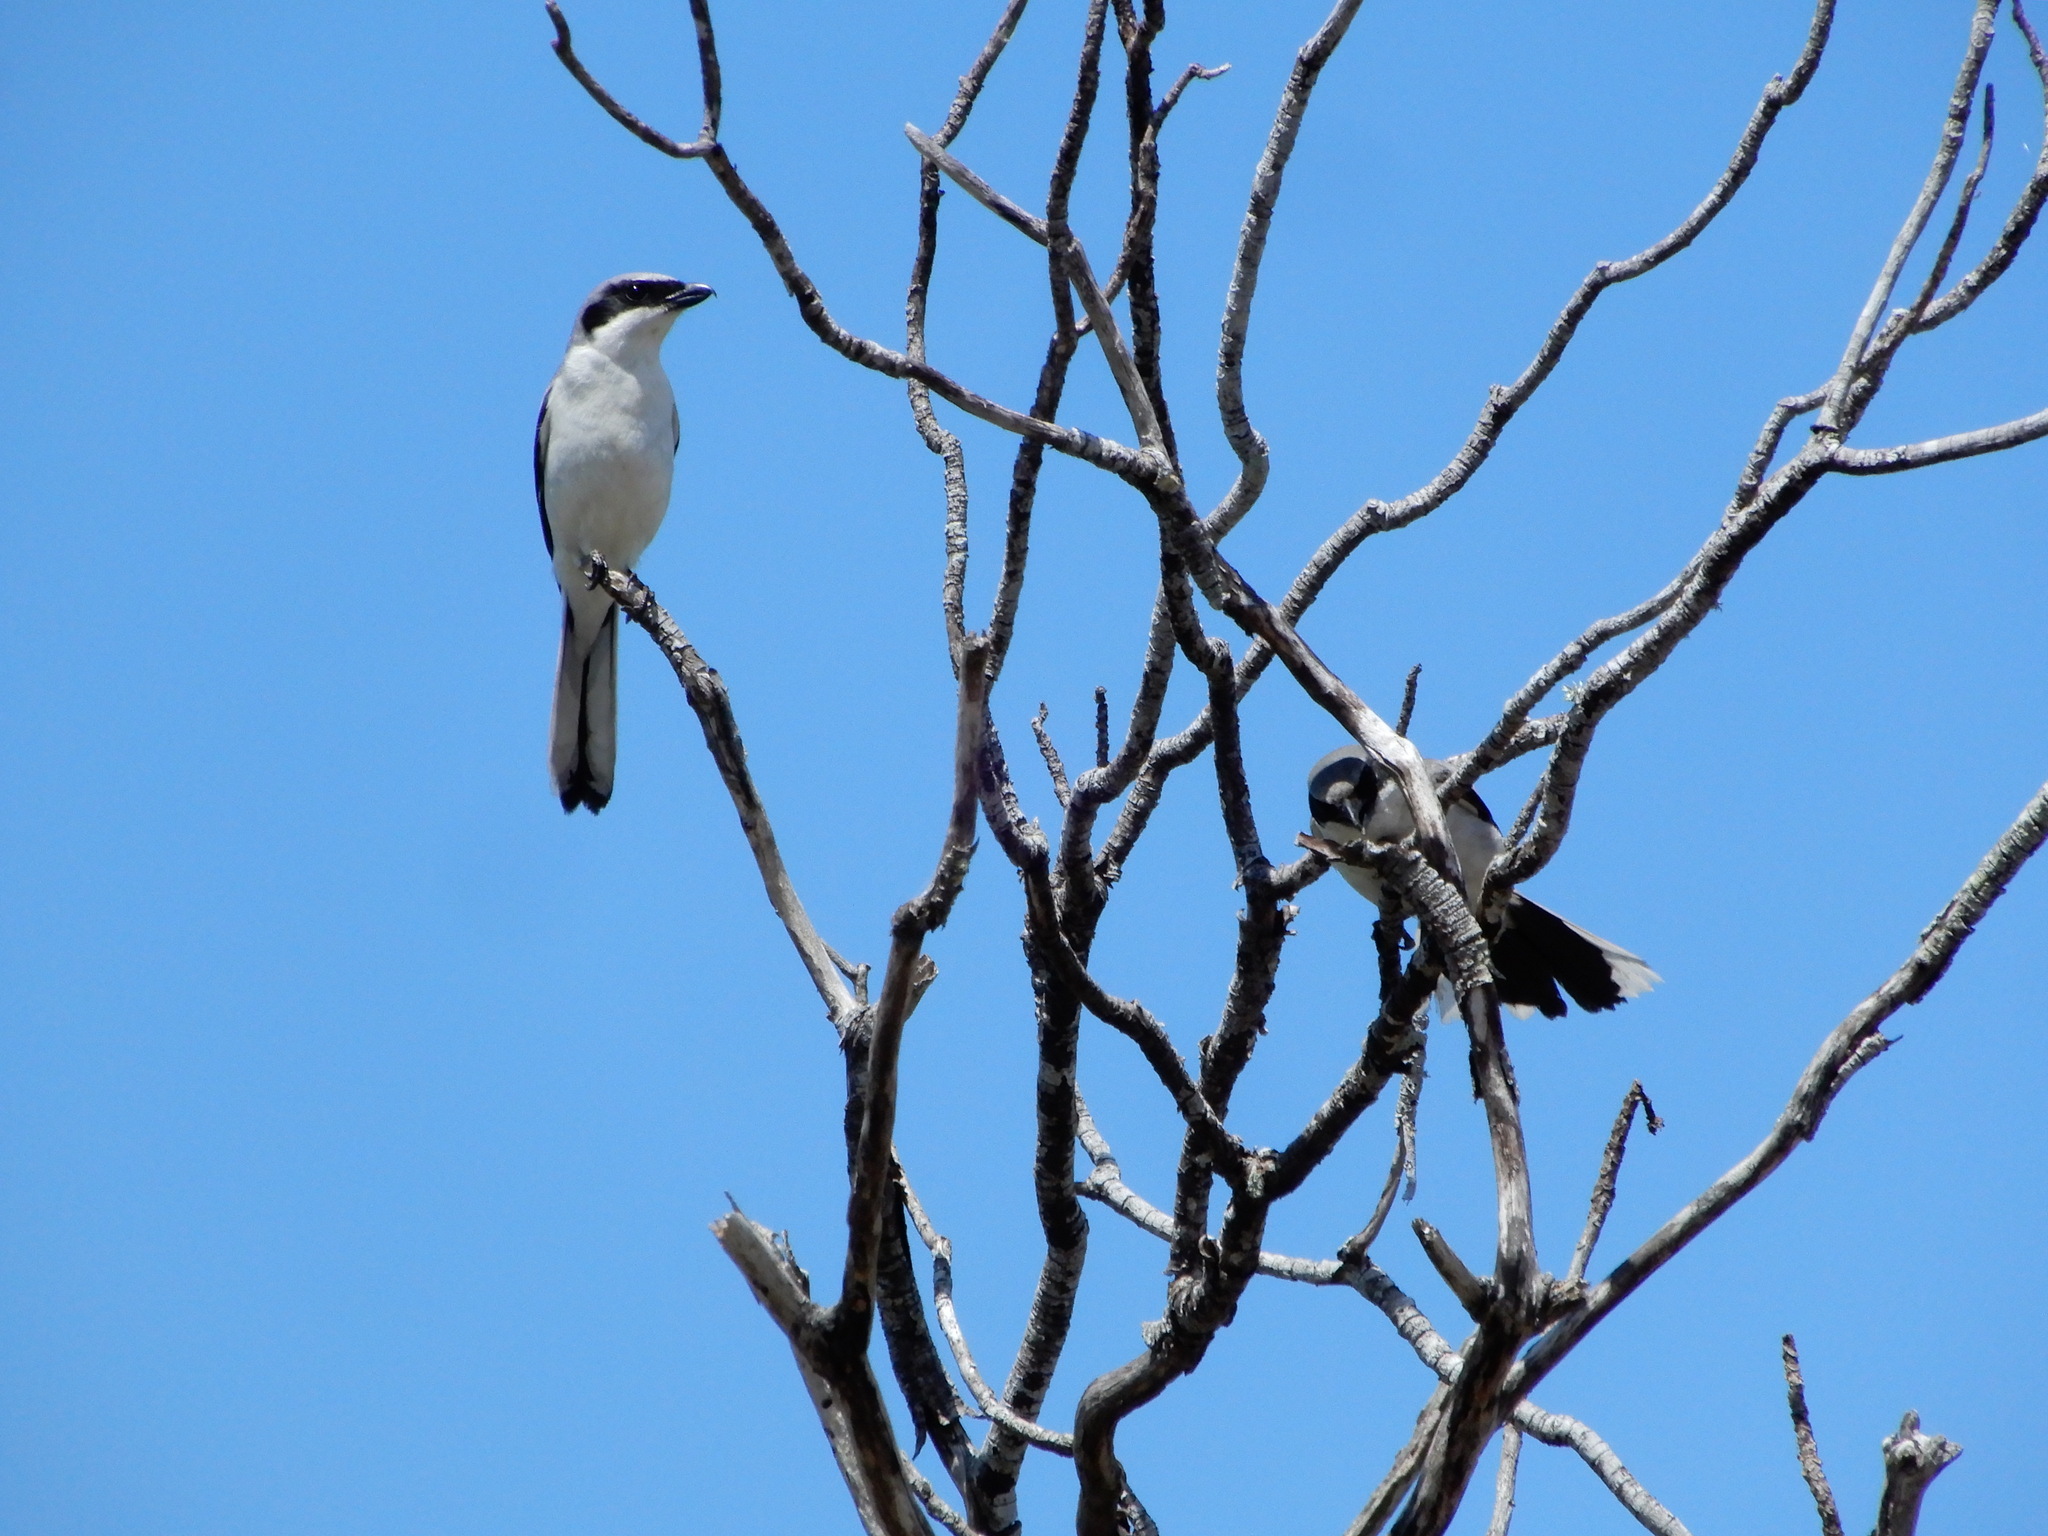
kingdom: Animalia
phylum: Chordata
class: Aves
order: Passeriformes
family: Laniidae
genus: Lanius
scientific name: Lanius ludovicianus
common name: Loggerhead shrike
